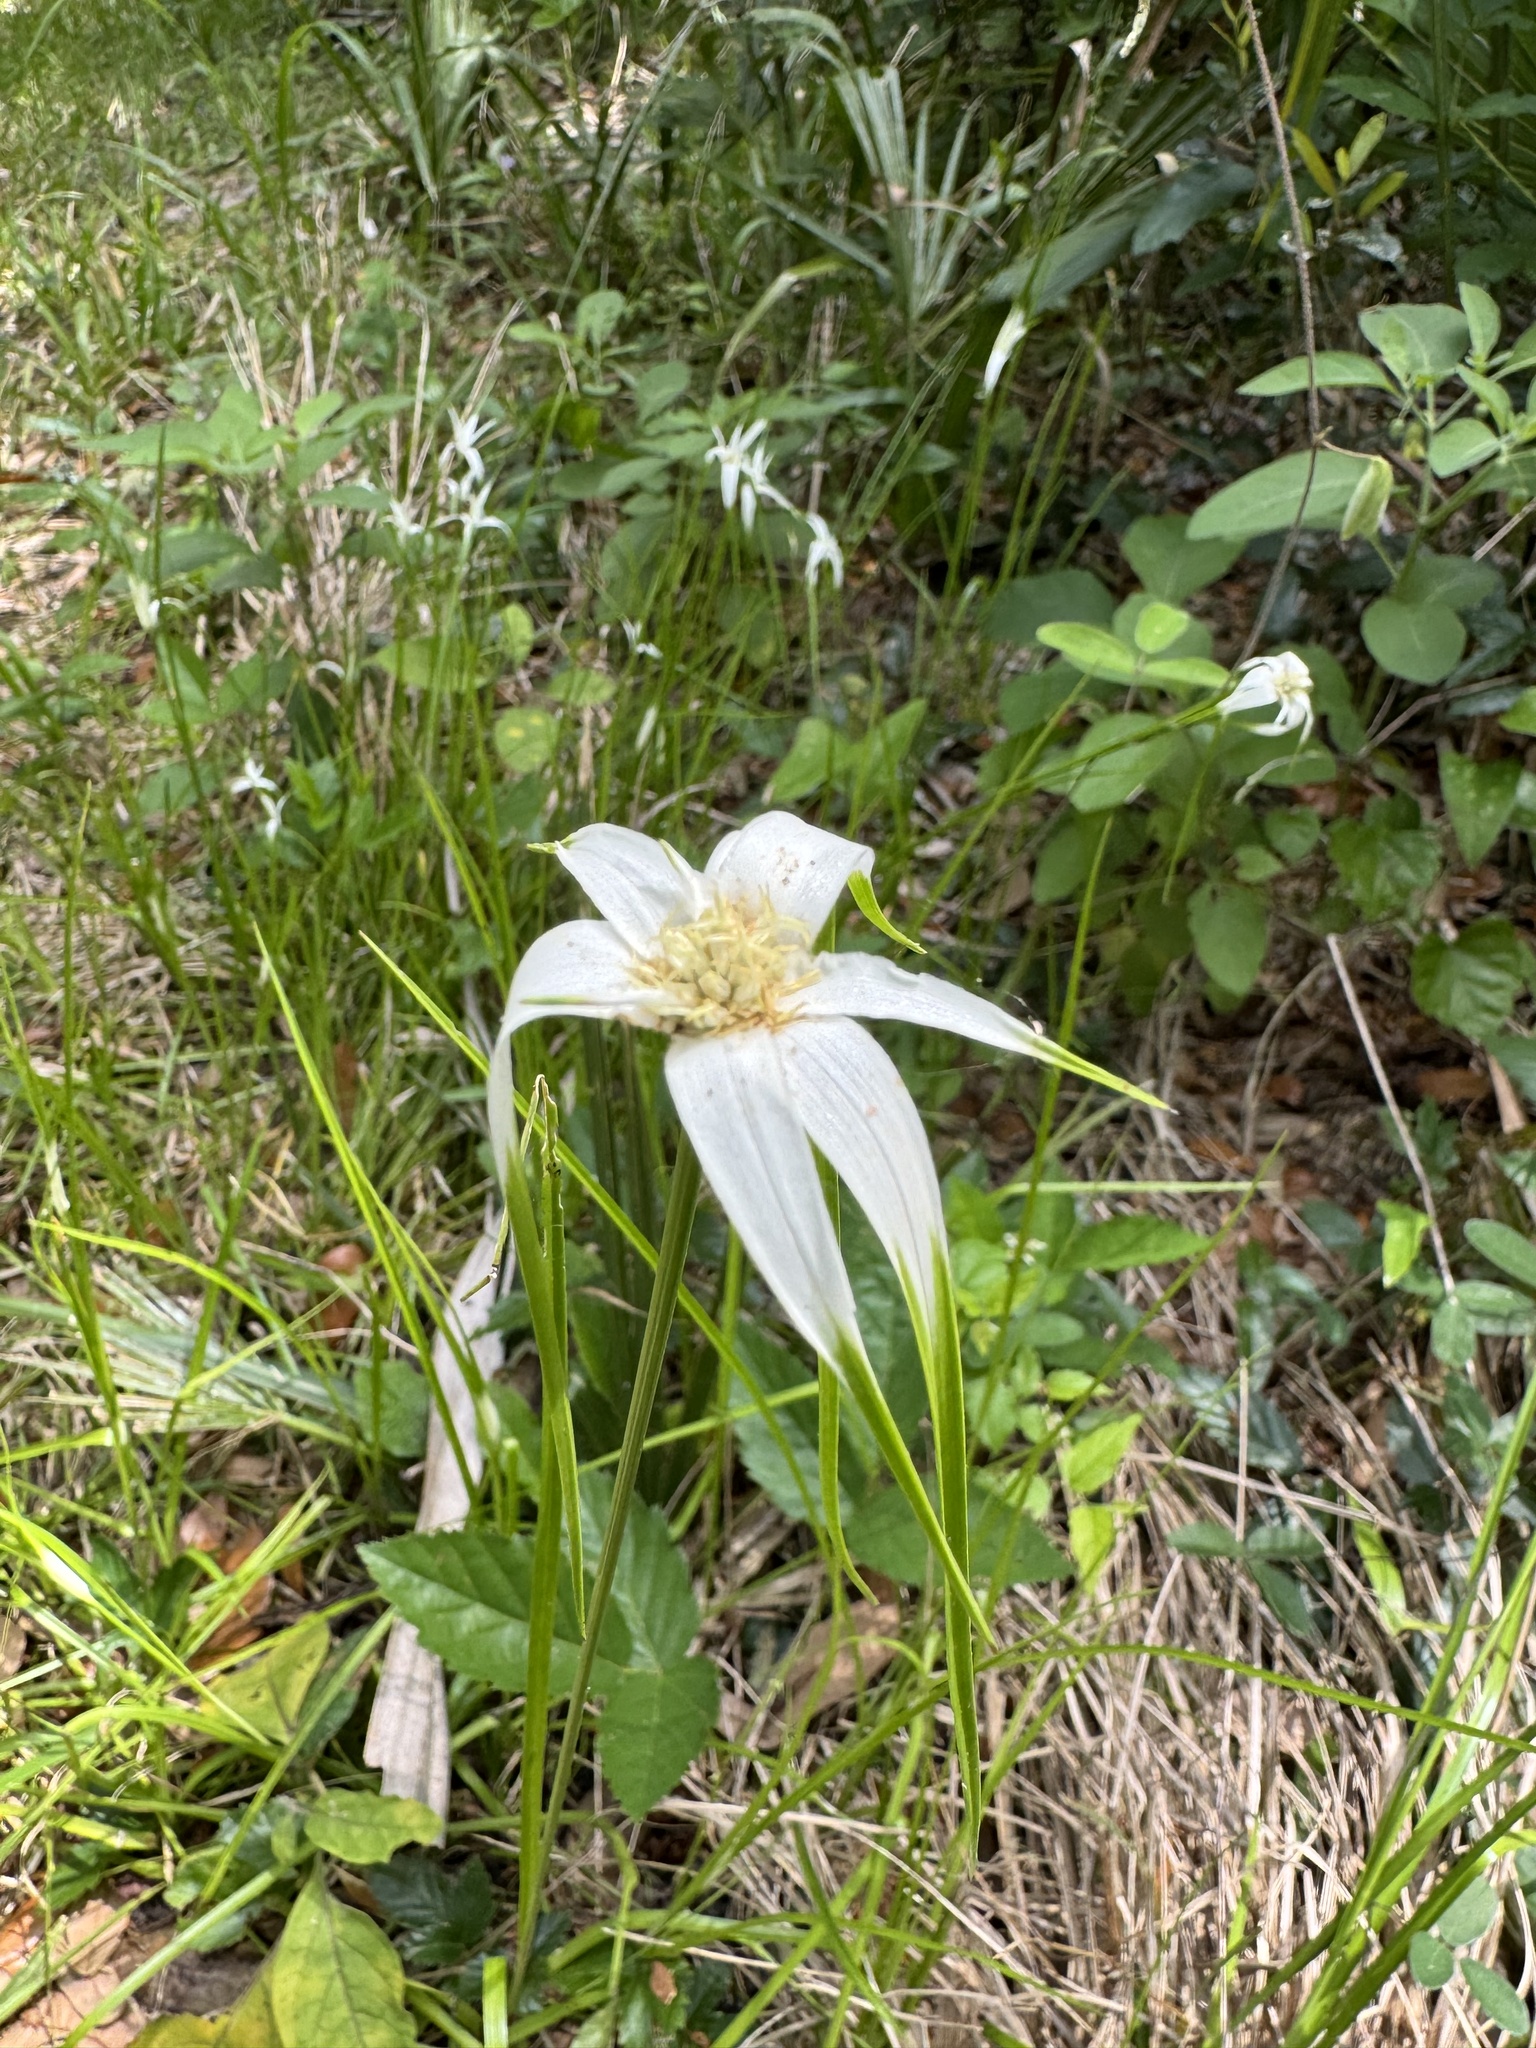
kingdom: Plantae
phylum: Tracheophyta
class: Liliopsida
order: Poales
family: Cyperaceae
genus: Rhynchospora
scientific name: Rhynchospora colorata
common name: Star sedge
